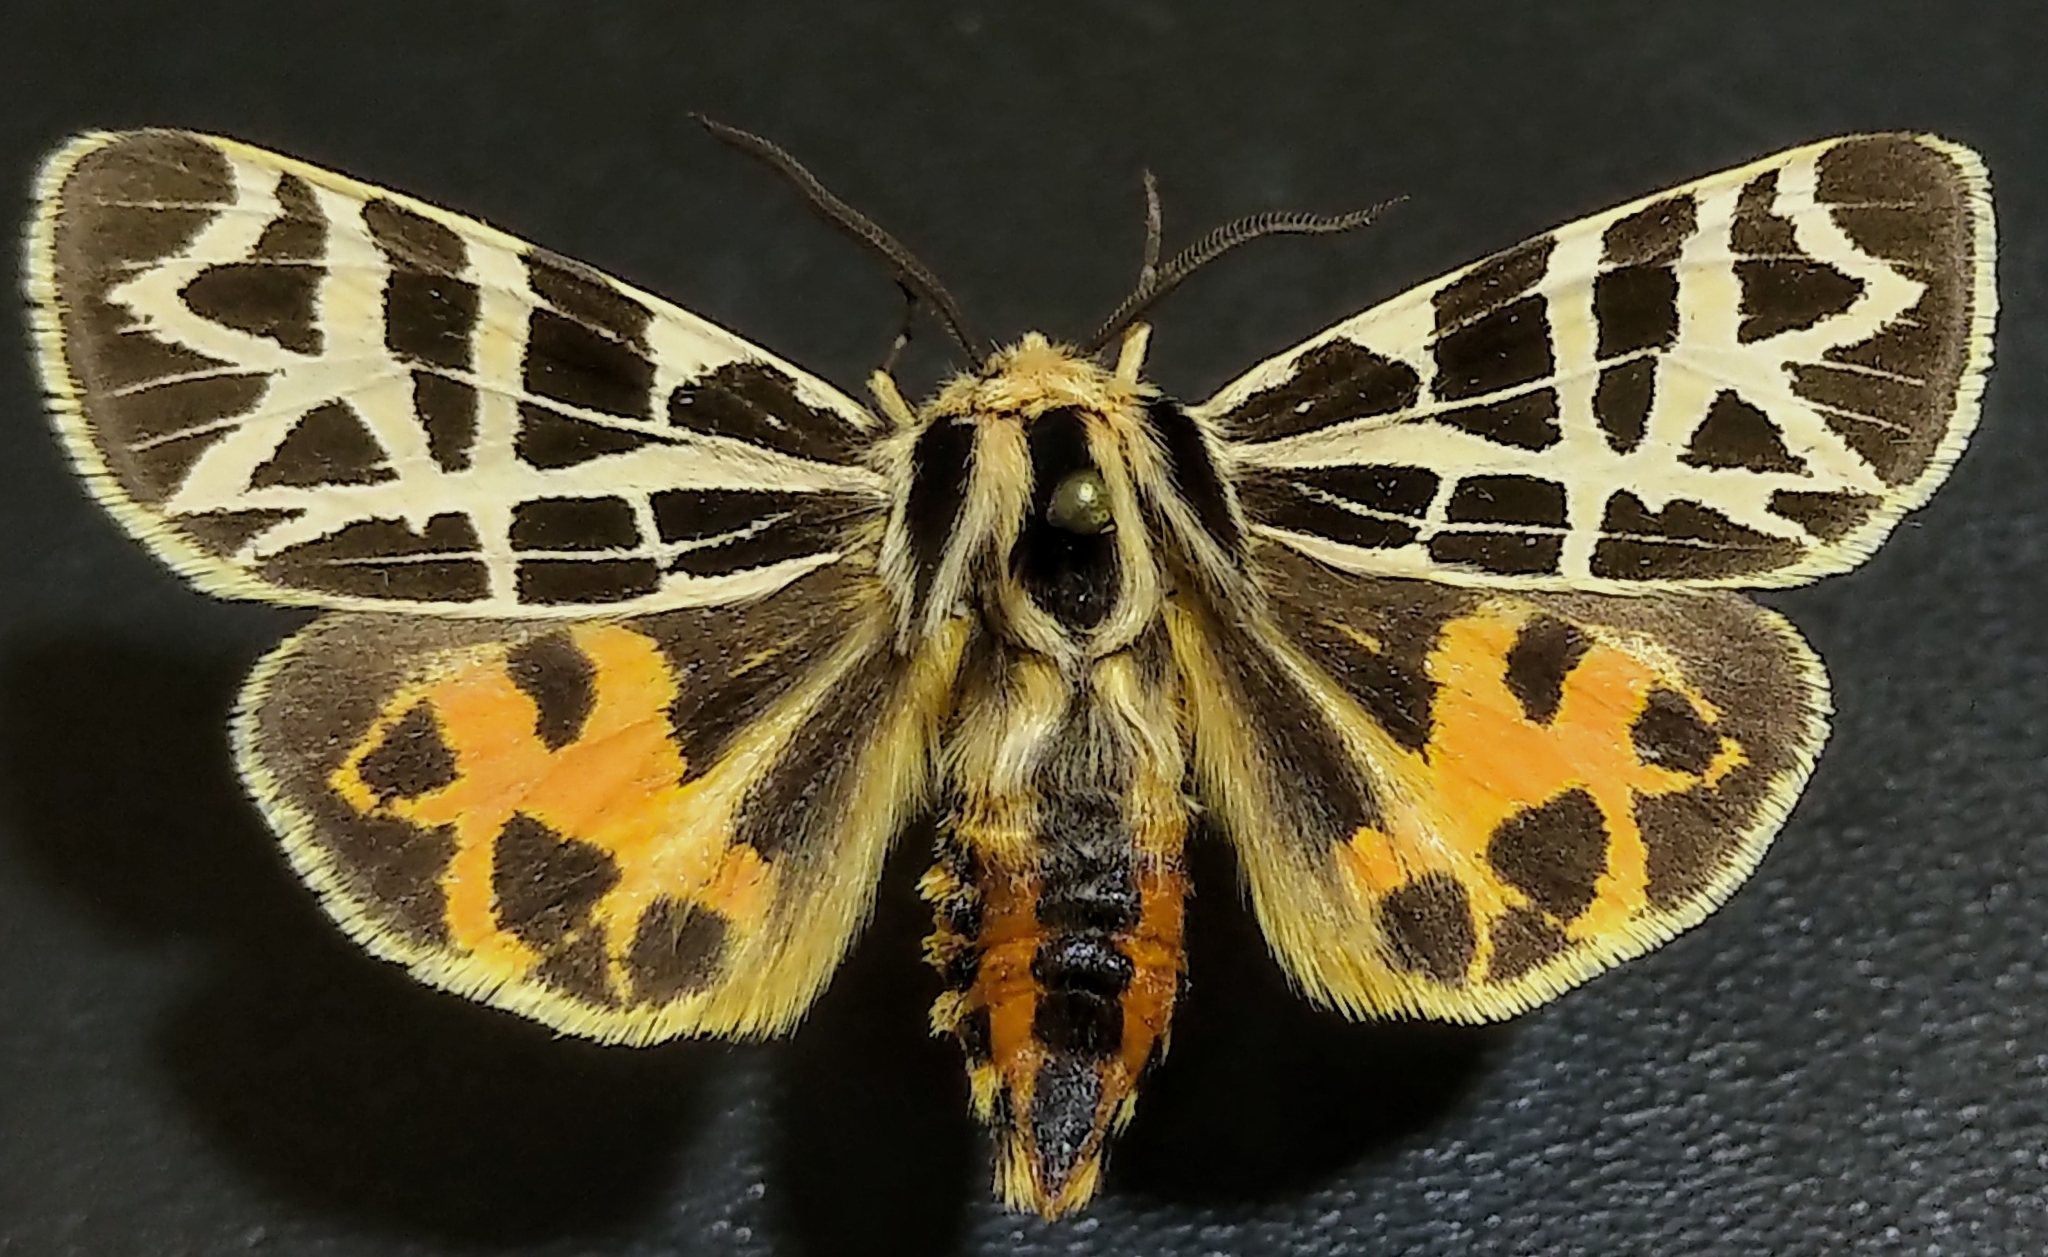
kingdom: Animalia
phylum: Arthropoda
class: Insecta
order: Lepidoptera
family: Erebidae
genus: Apantesis
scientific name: Apantesis
